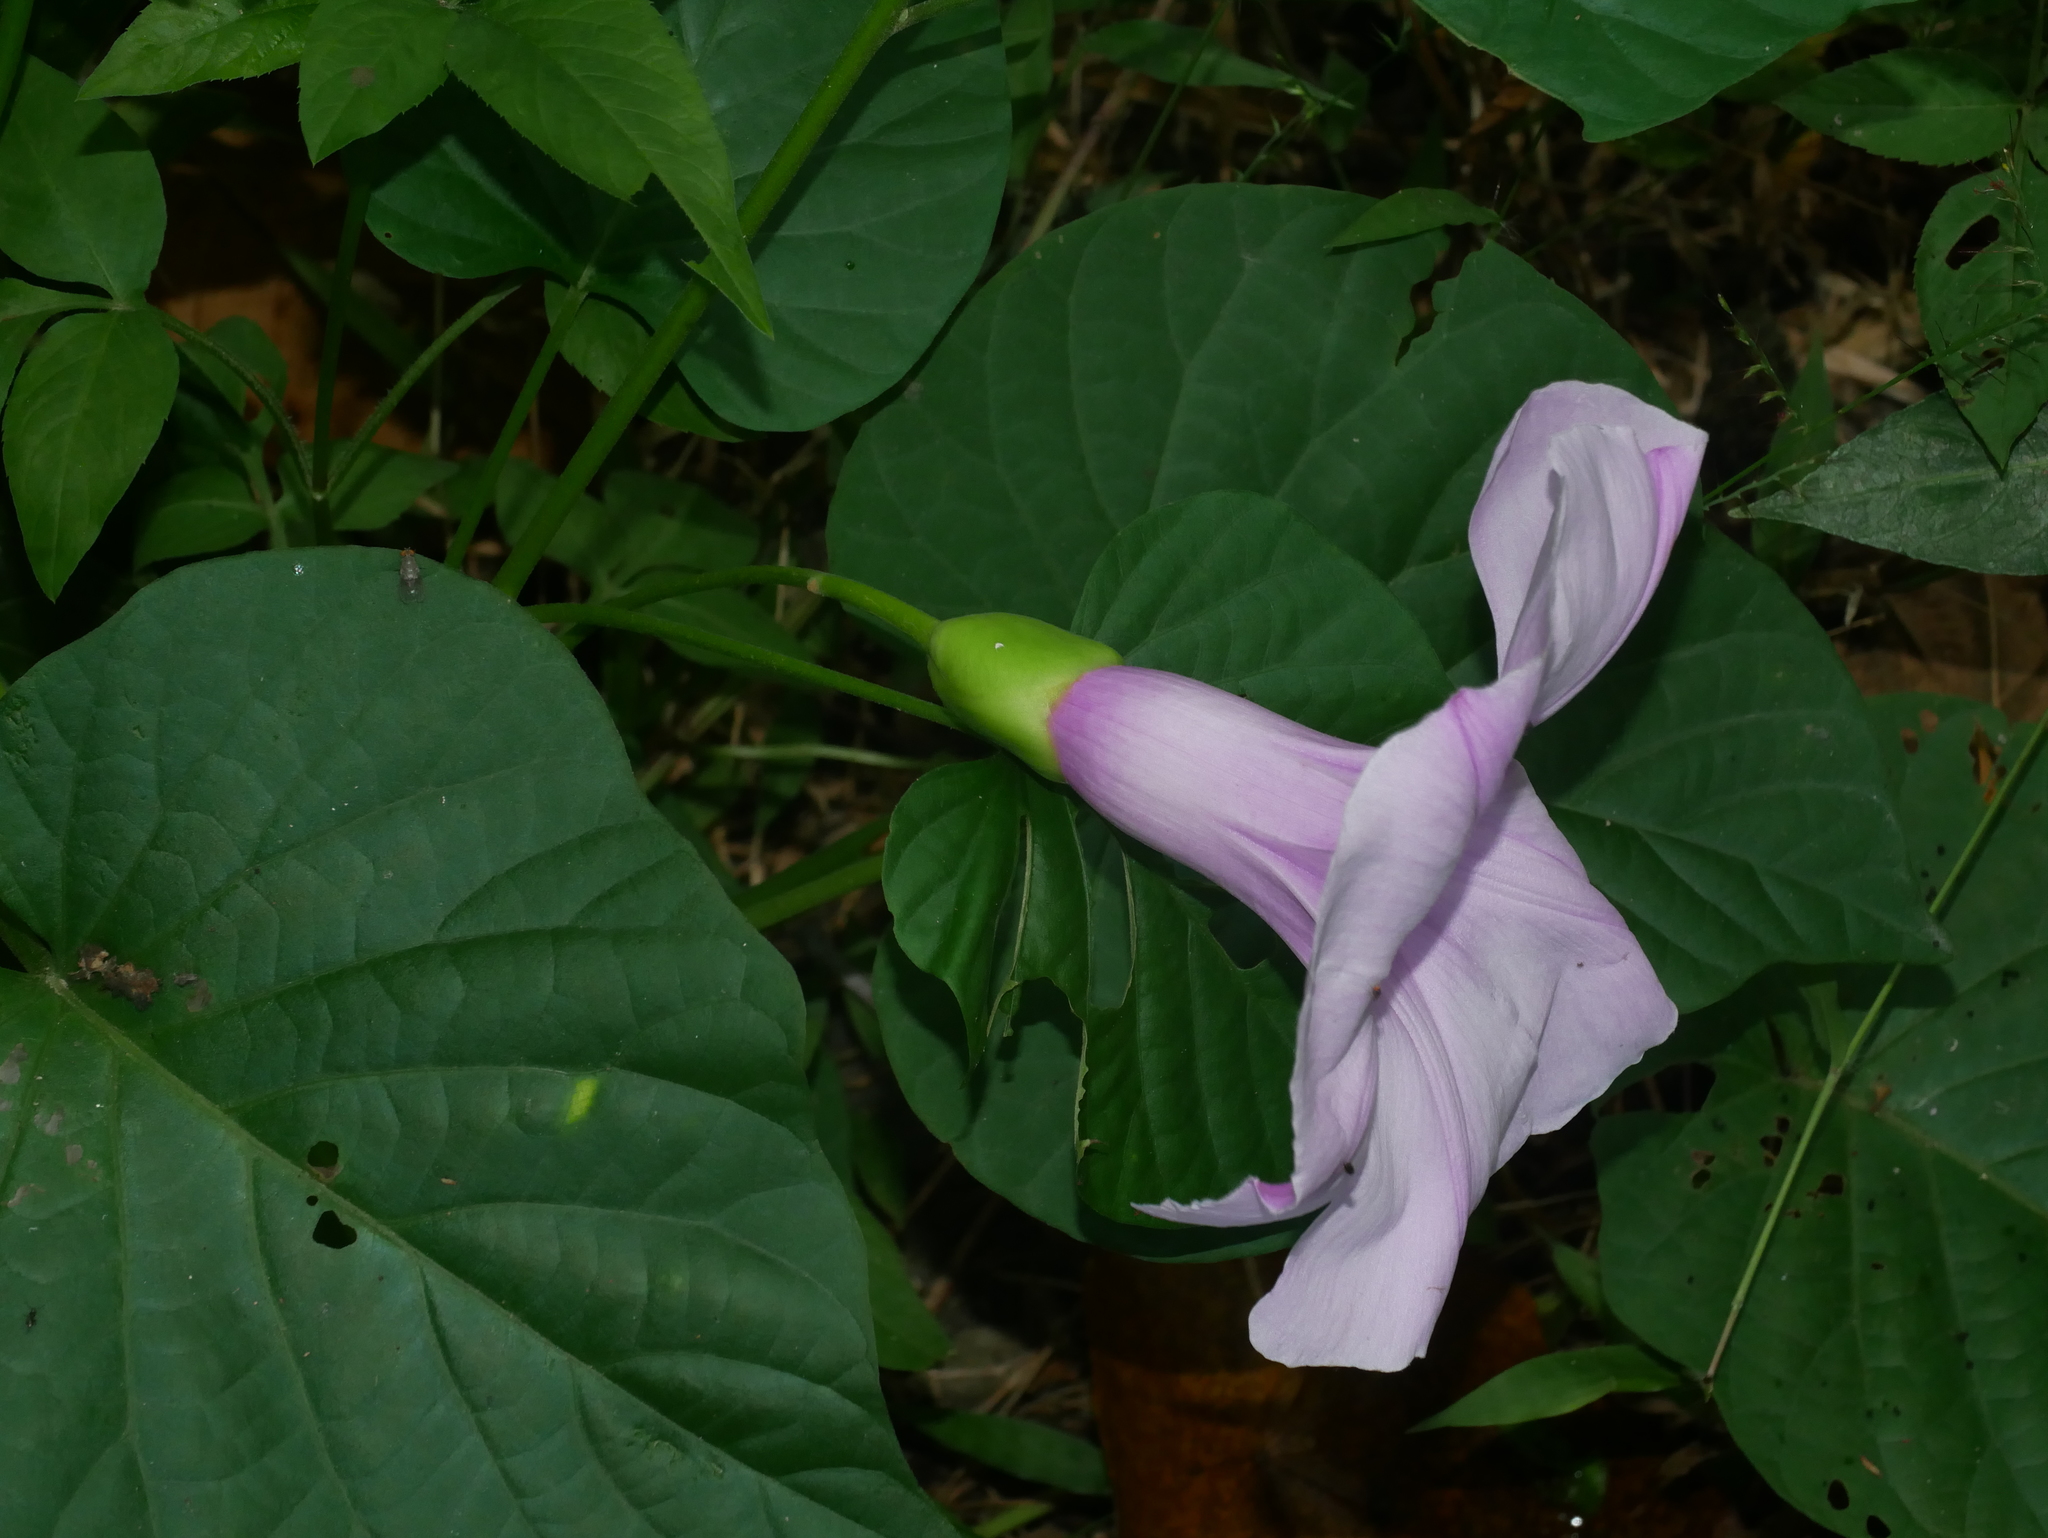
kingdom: Plantae
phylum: Tracheophyta
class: Magnoliopsida
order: Solanales
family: Convolvulaceae
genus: Stictocardia
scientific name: Stictocardia tiliifolia
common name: Spottedheart
